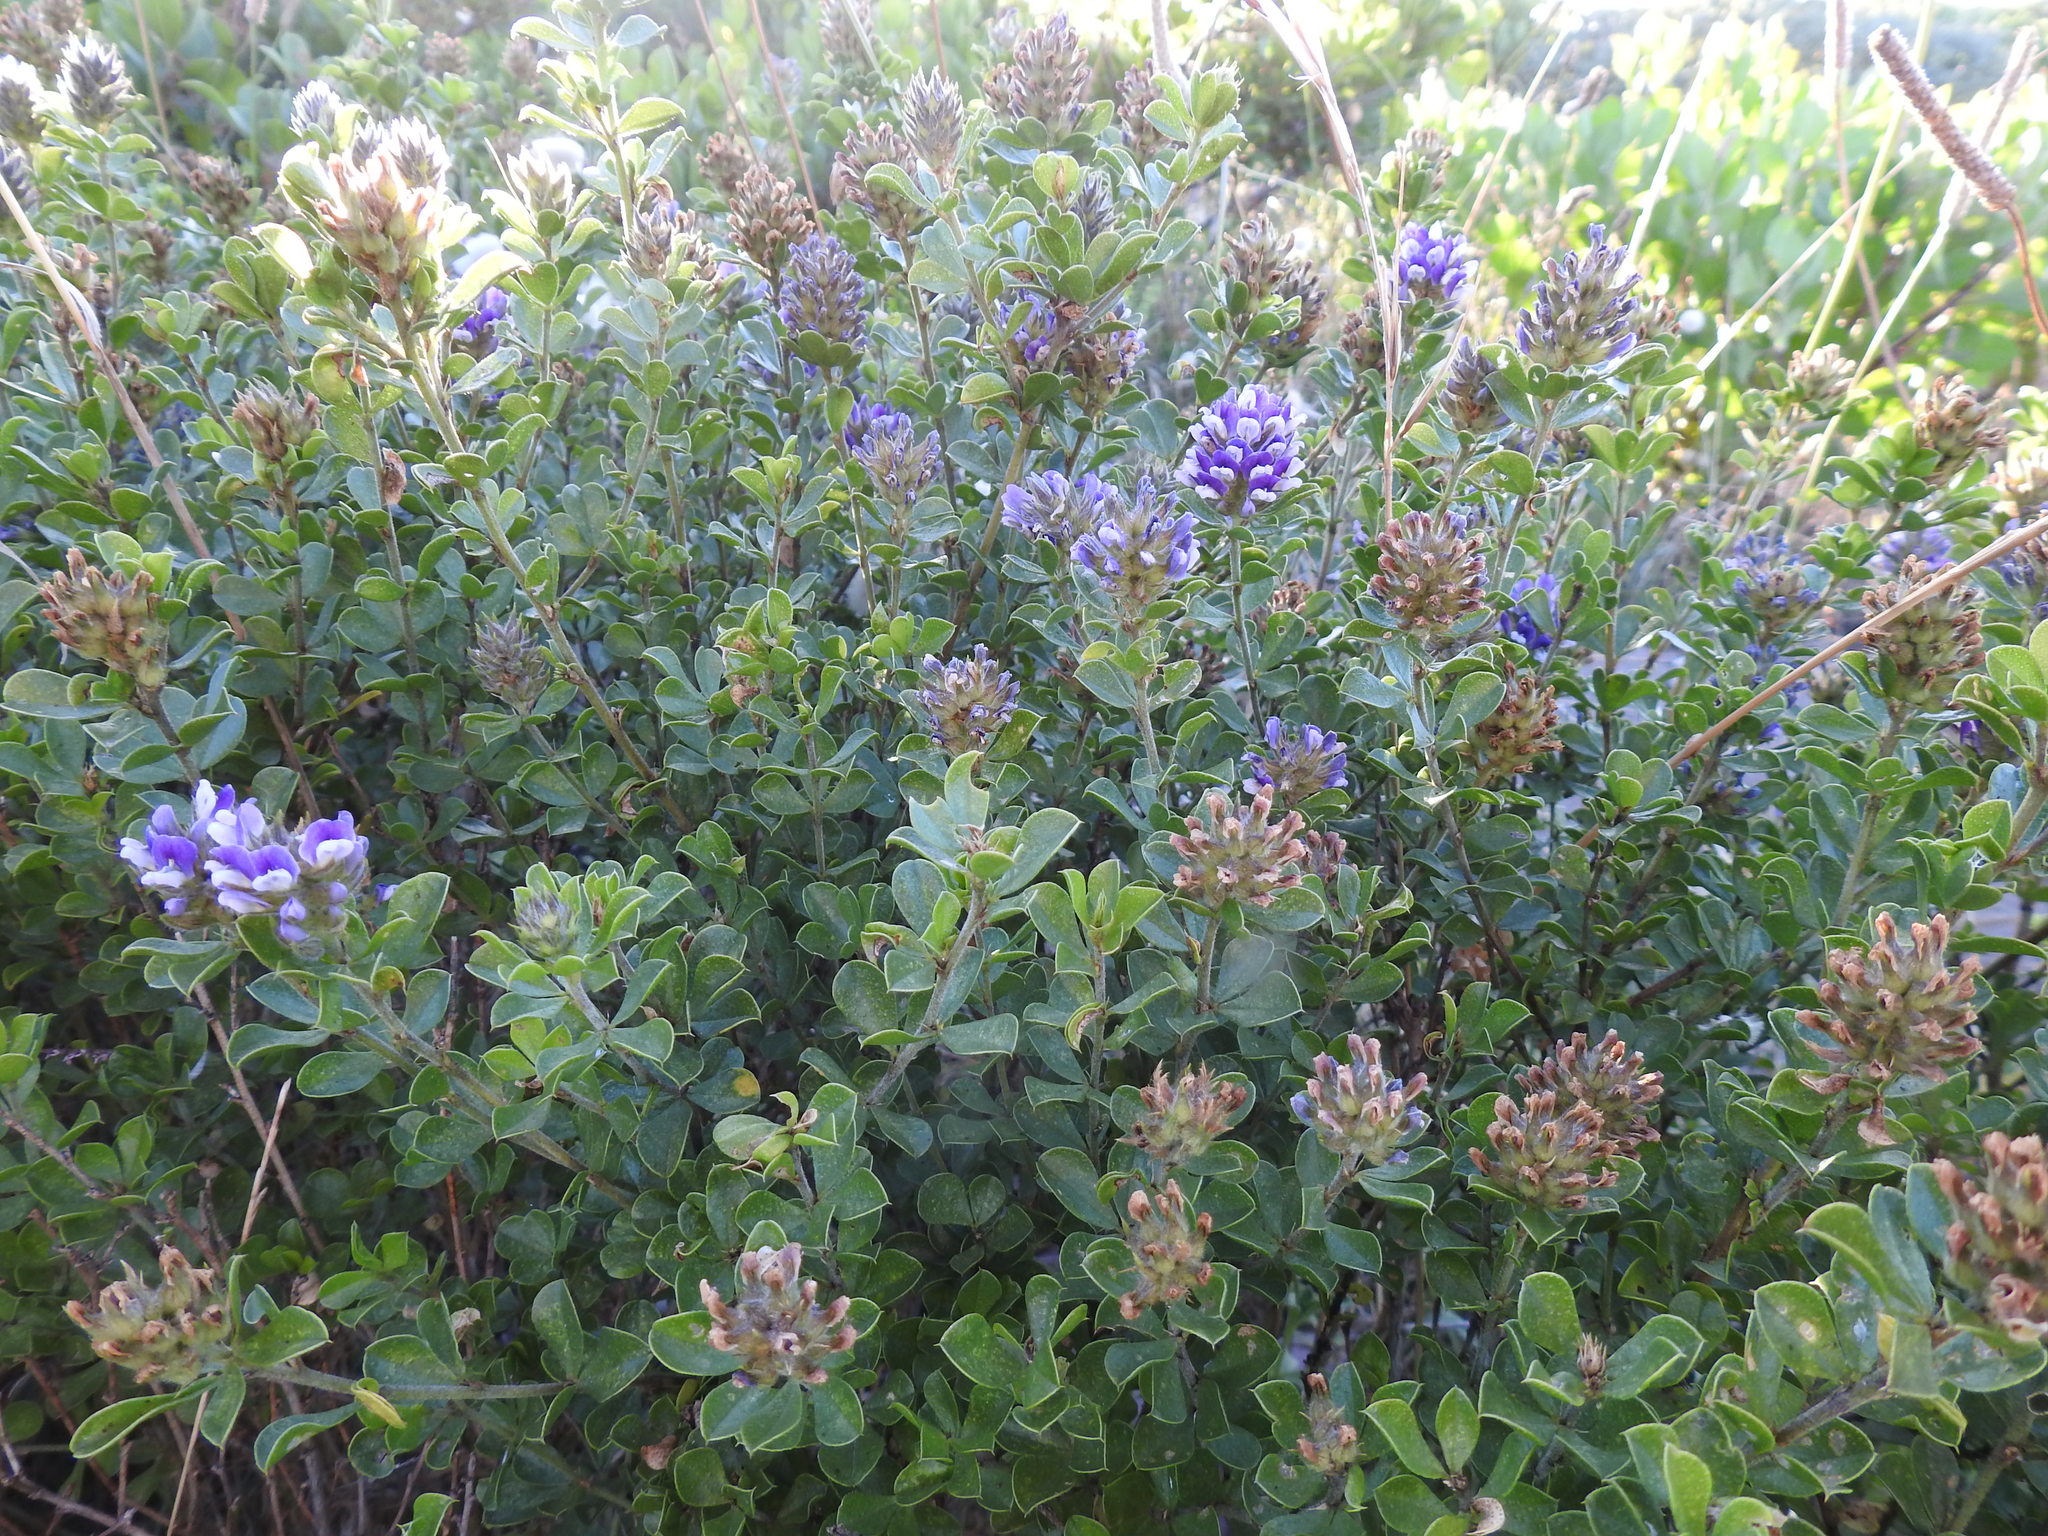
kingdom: Plantae
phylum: Tracheophyta
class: Magnoliopsida
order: Fabales
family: Fabaceae
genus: Psoralea
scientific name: Psoralea bracteolata
